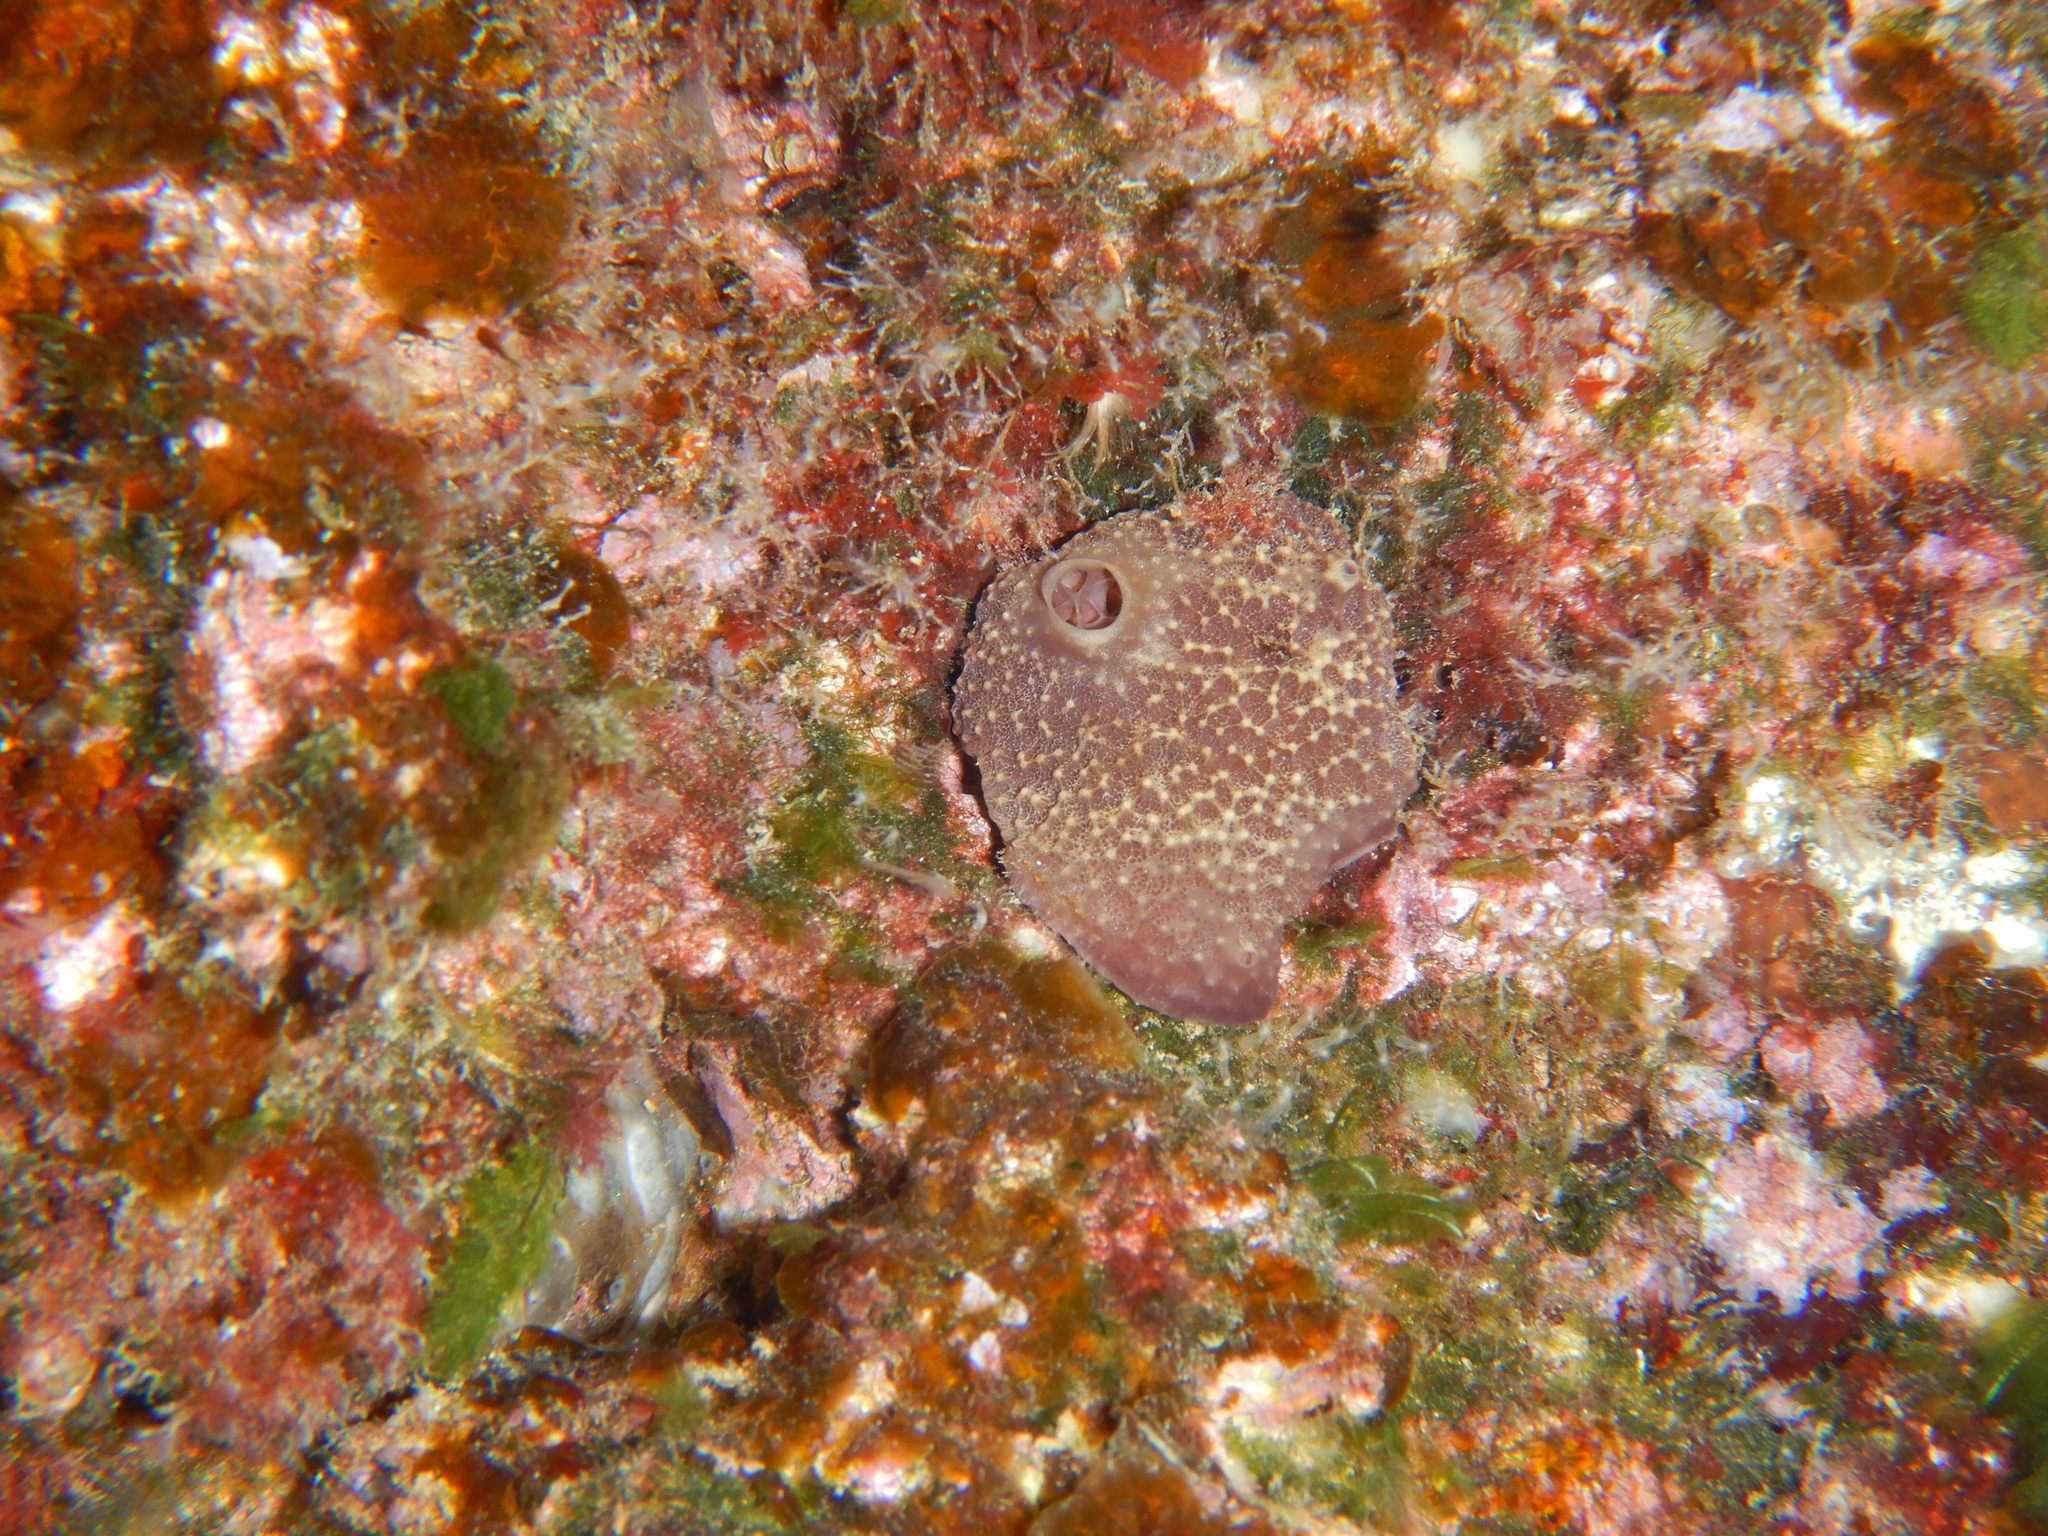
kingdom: Animalia
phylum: Porifera
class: Demospongiae
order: Dictyoceratida
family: Irciniidae
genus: Ircinia
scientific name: Ircinia variabilis
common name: Variable loggerhead sponge
